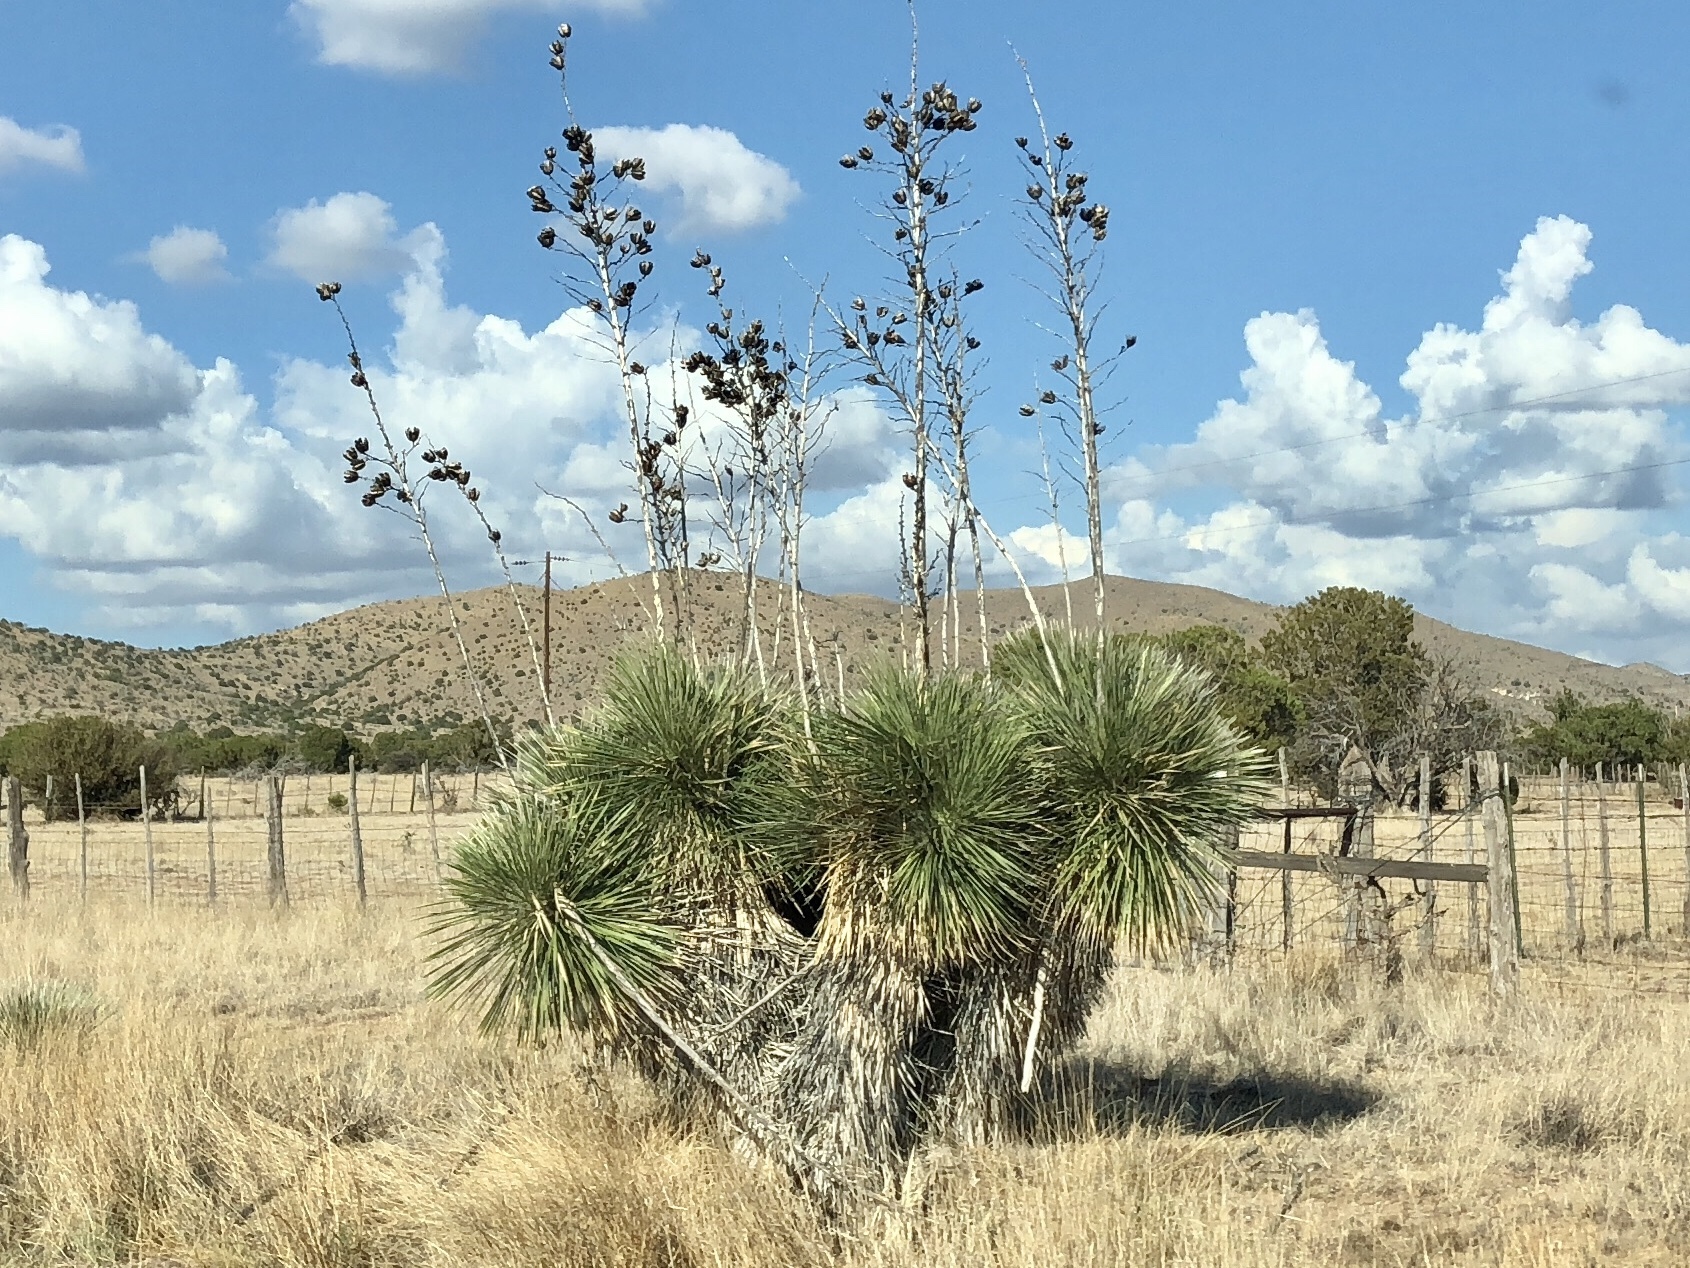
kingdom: Plantae
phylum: Tracheophyta
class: Liliopsida
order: Asparagales
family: Asparagaceae
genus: Yucca
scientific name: Yucca elata
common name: Palmella
